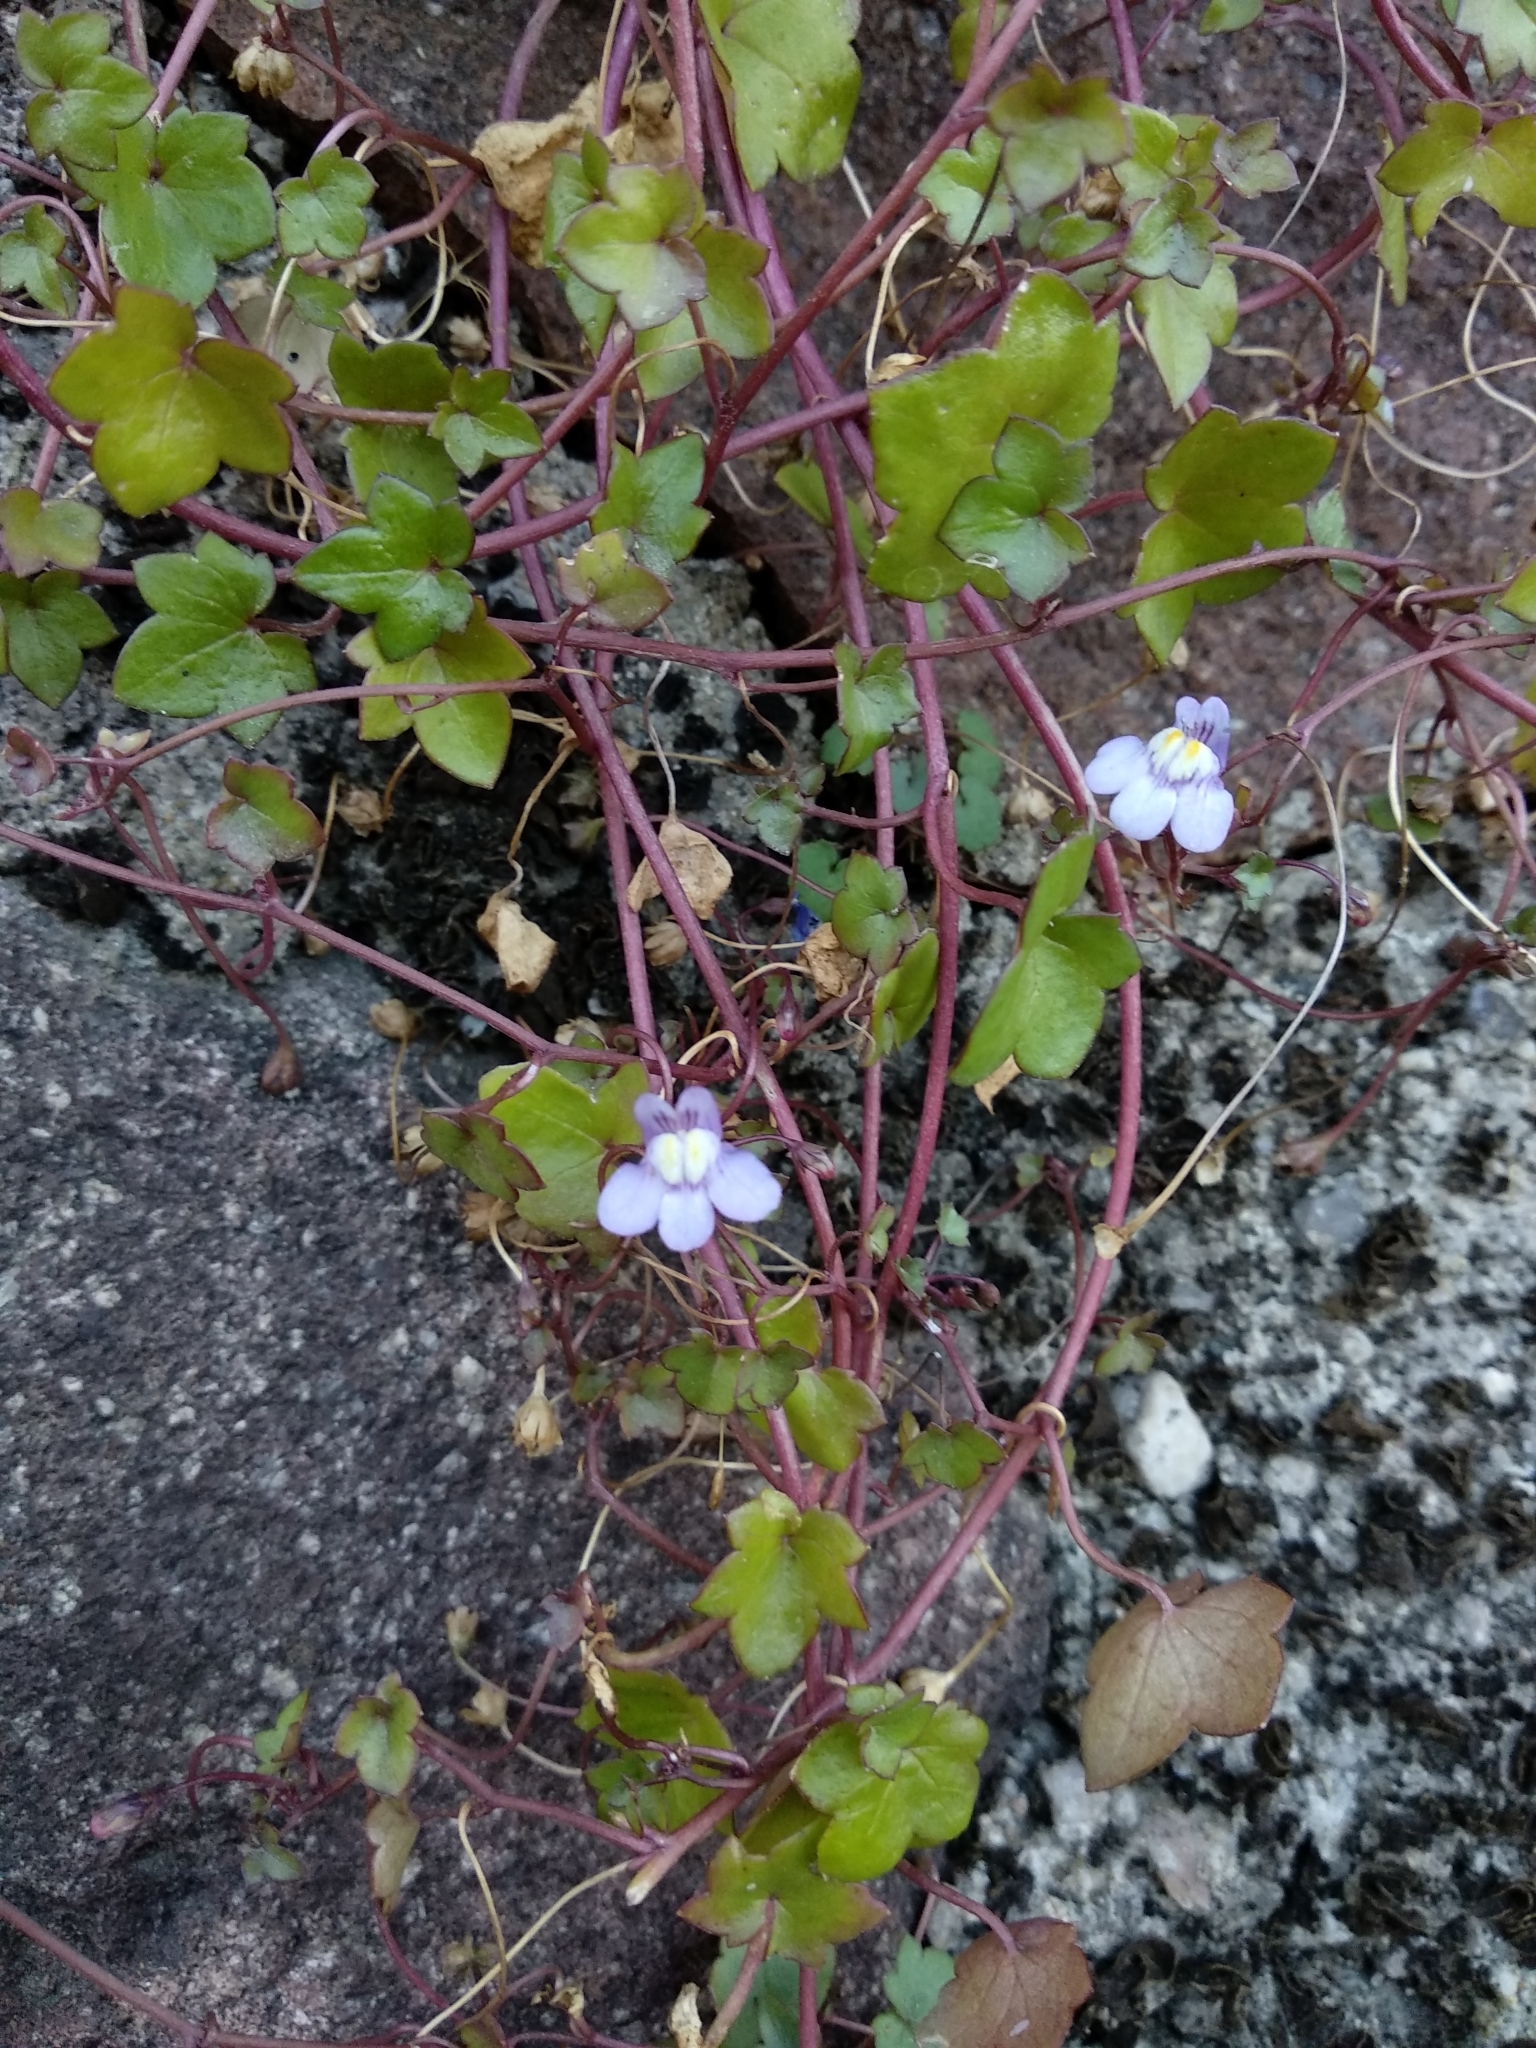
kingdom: Plantae
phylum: Tracheophyta
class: Magnoliopsida
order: Lamiales
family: Plantaginaceae
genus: Cymbalaria
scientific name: Cymbalaria muralis
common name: Ivy-leaved toadflax
